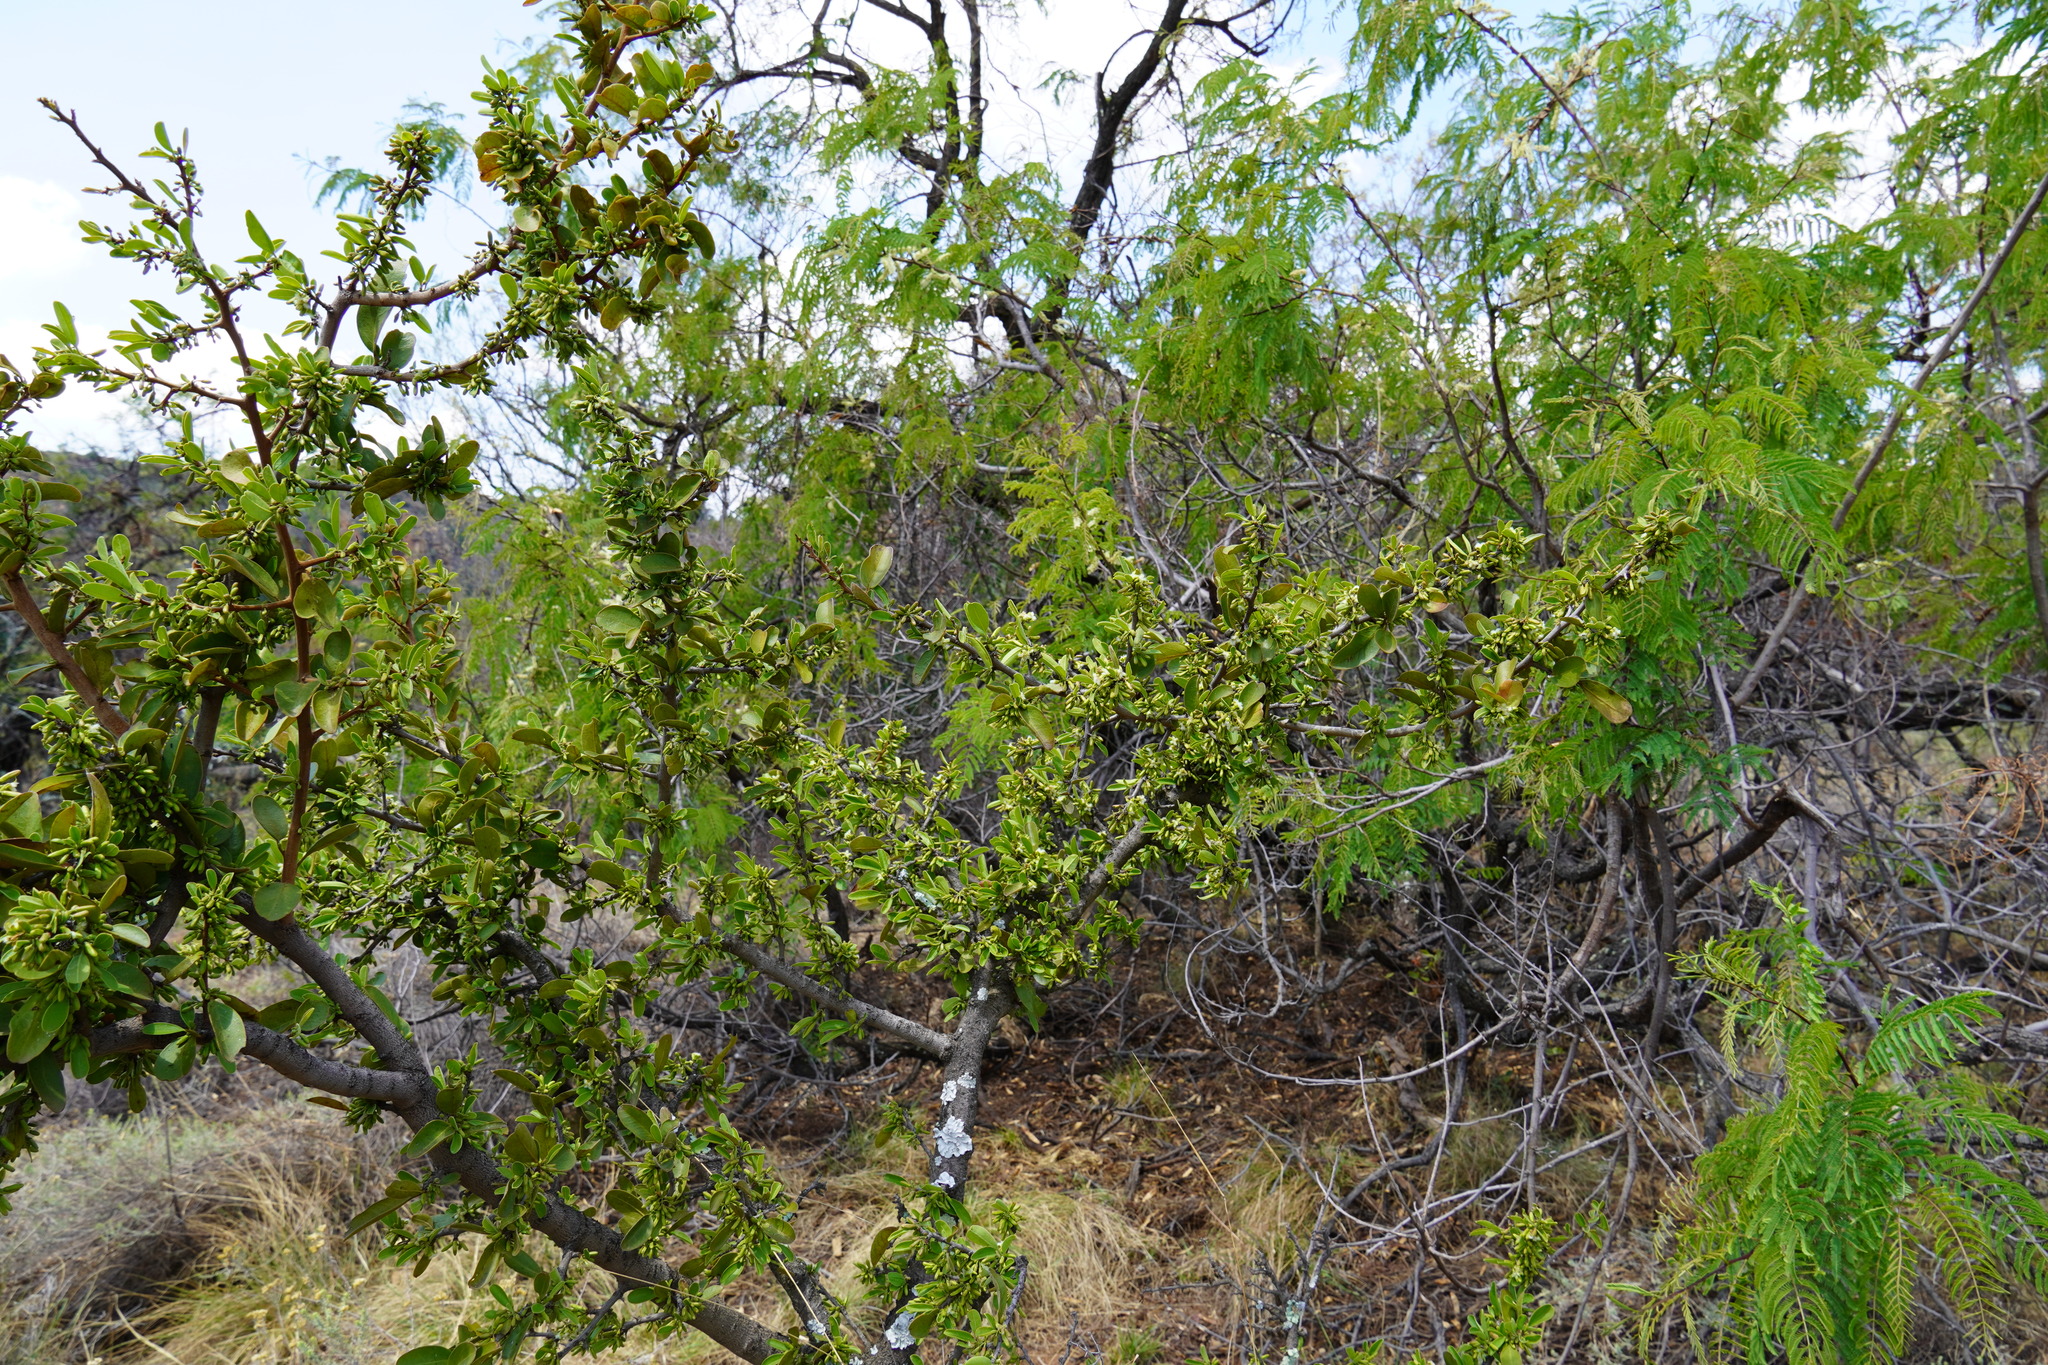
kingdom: Plantae
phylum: Tracheophyta
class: Magnoliopsida
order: Santalales
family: Ximeniaceae
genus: Ximenia
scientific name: Ximenia caffra
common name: Large sourplum
